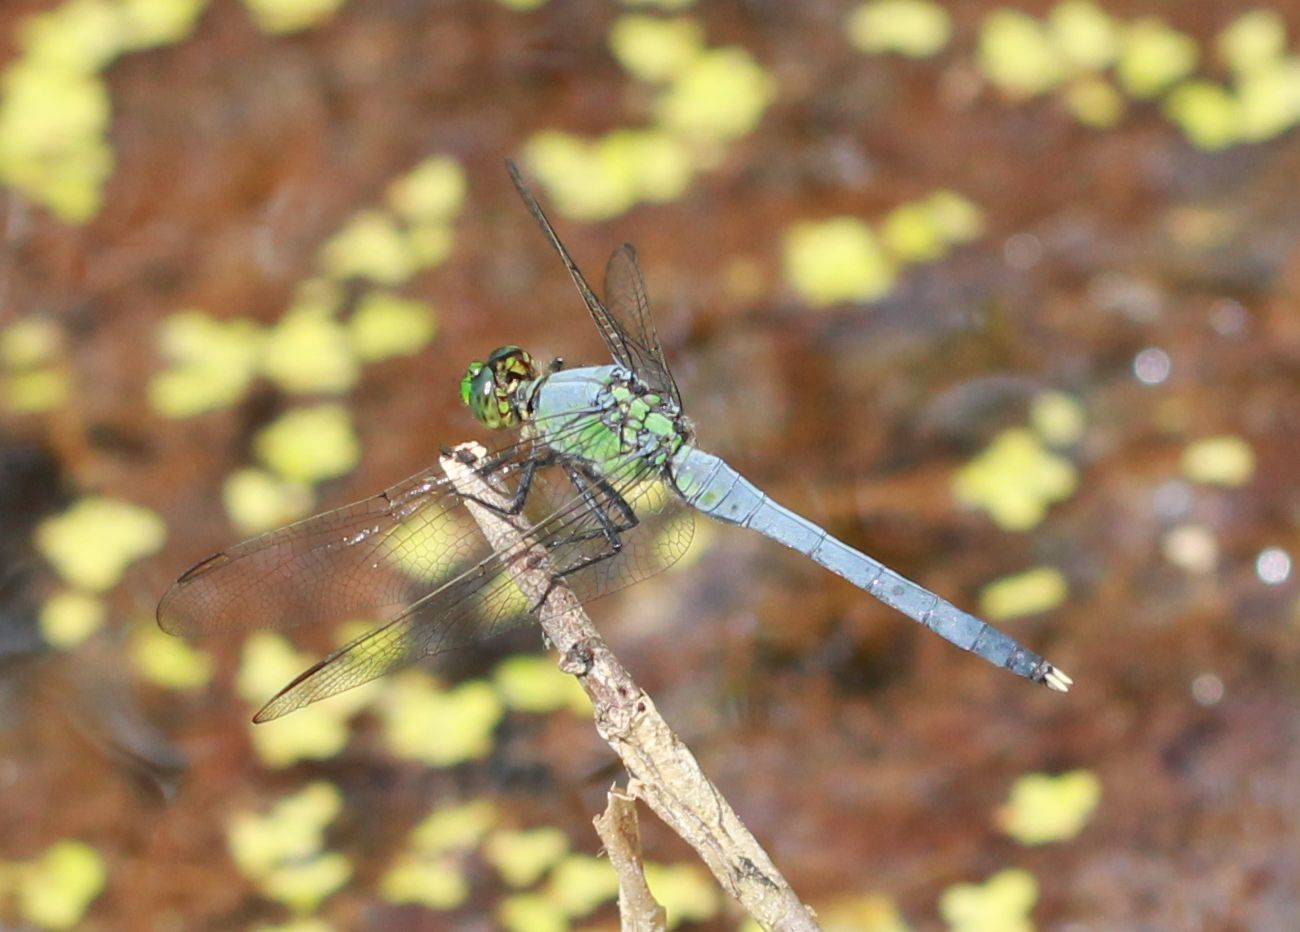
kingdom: Animalia
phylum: Arthropoda
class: Insecta
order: Odonata
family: Libellulidae
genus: Erythemis
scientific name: Erythemis simplicicollis
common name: Eastern pondhawk
